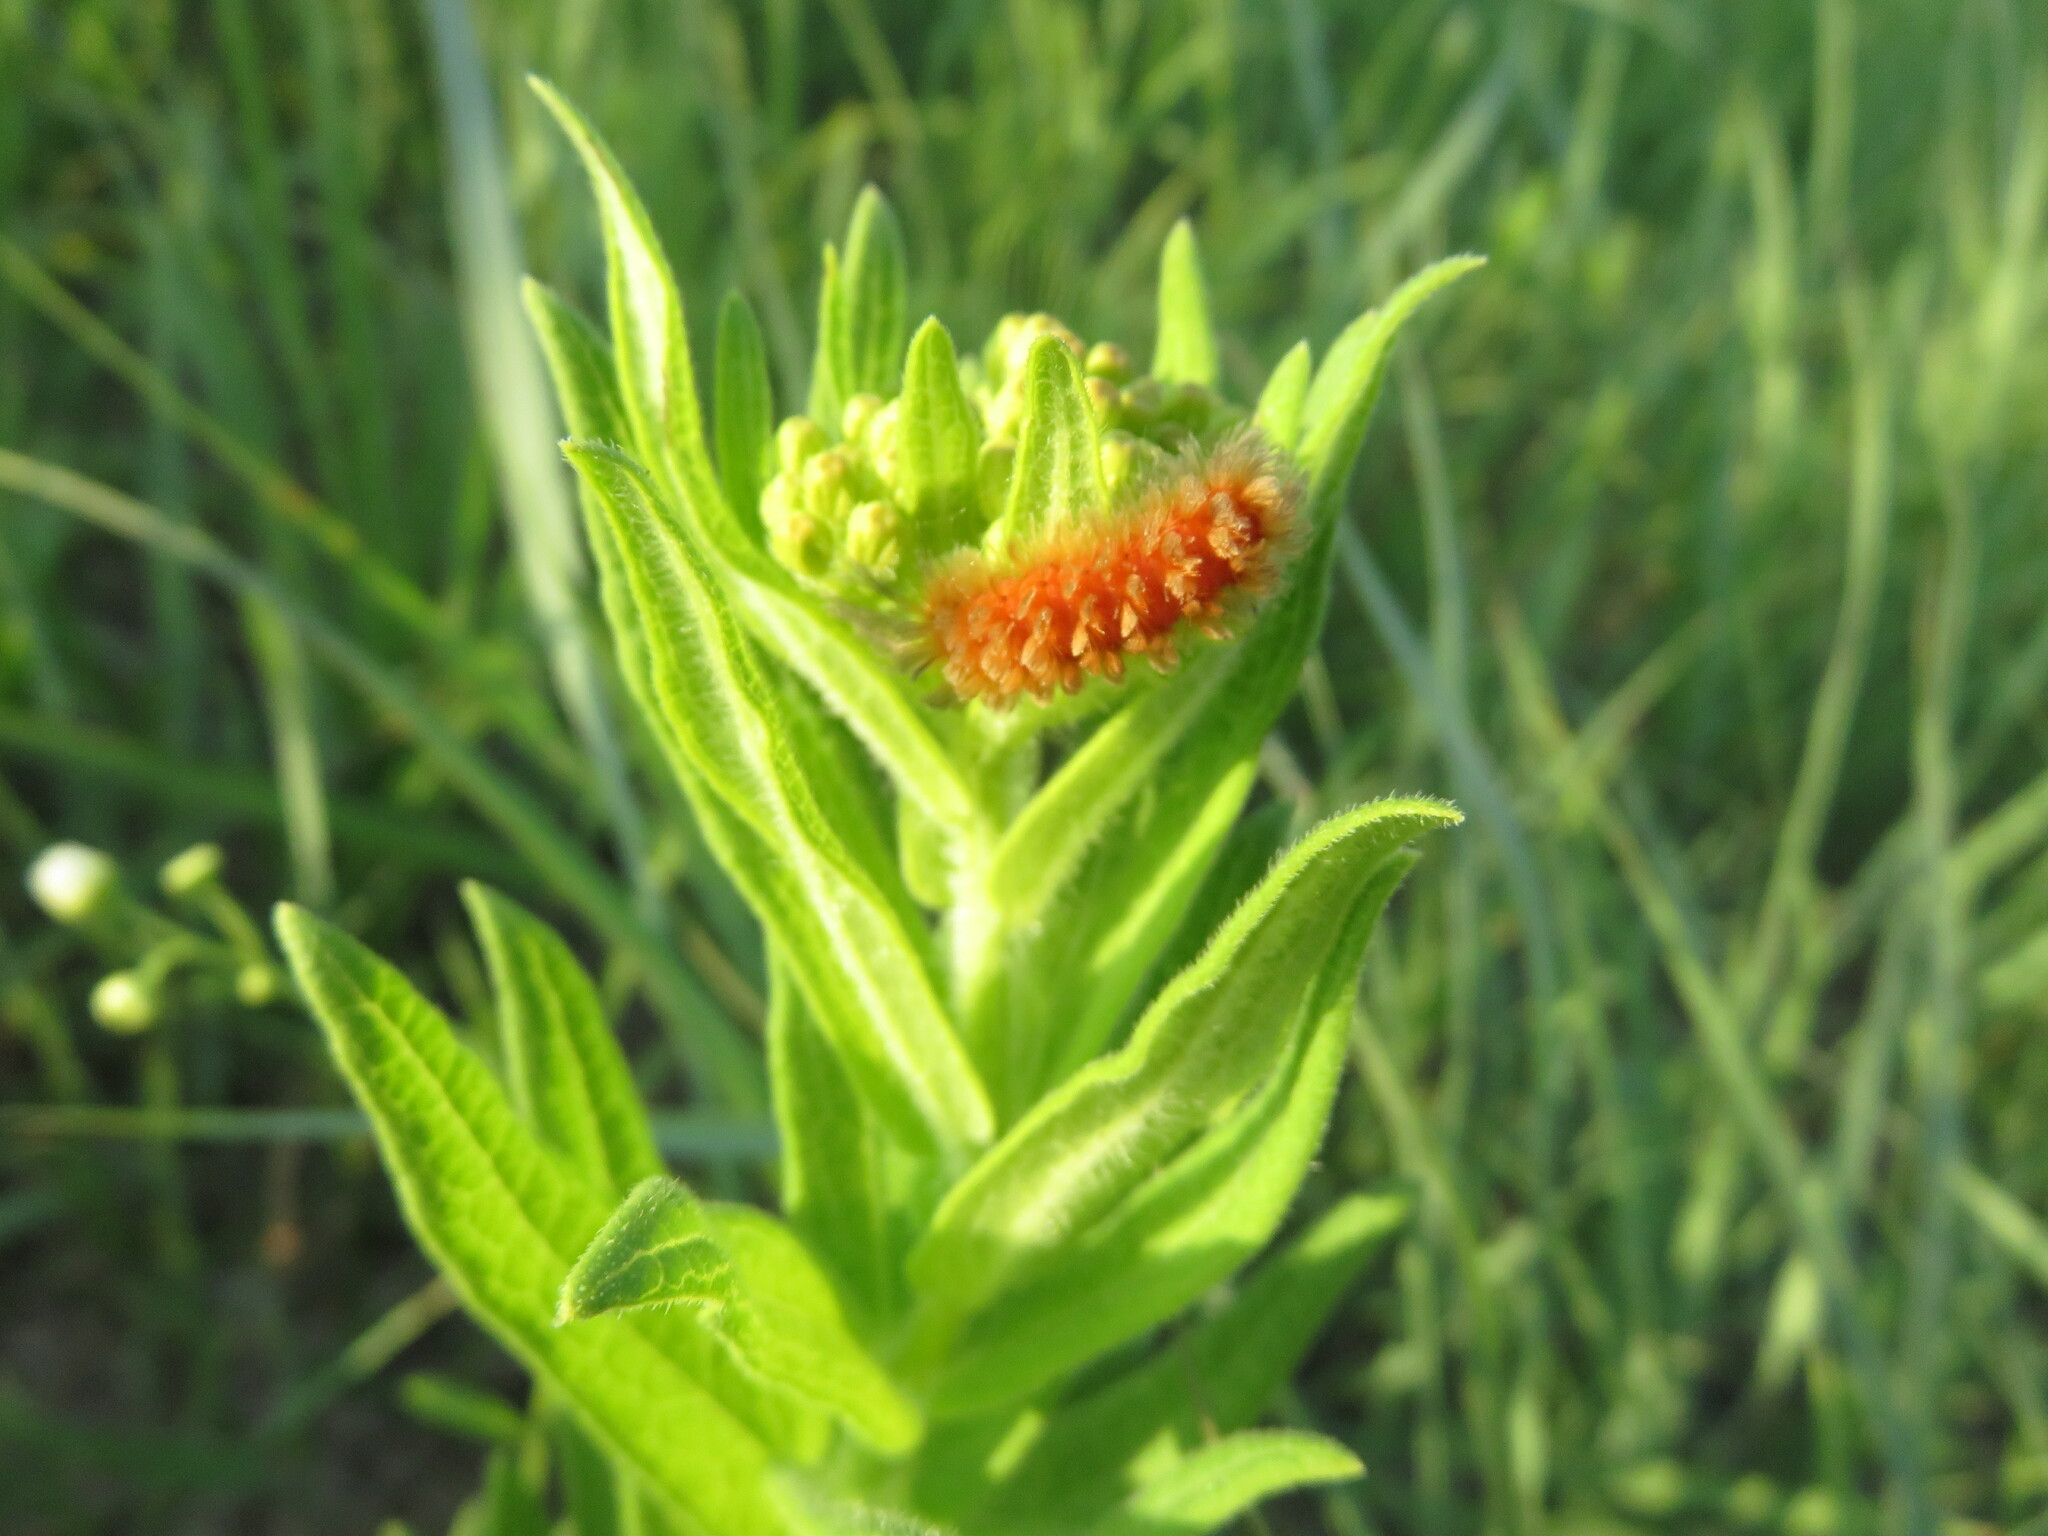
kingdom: Animalia
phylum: Arthropoda
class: Insecta
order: Lepidoptera
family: Erebidae
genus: Cycnia
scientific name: Cycnia collaris
